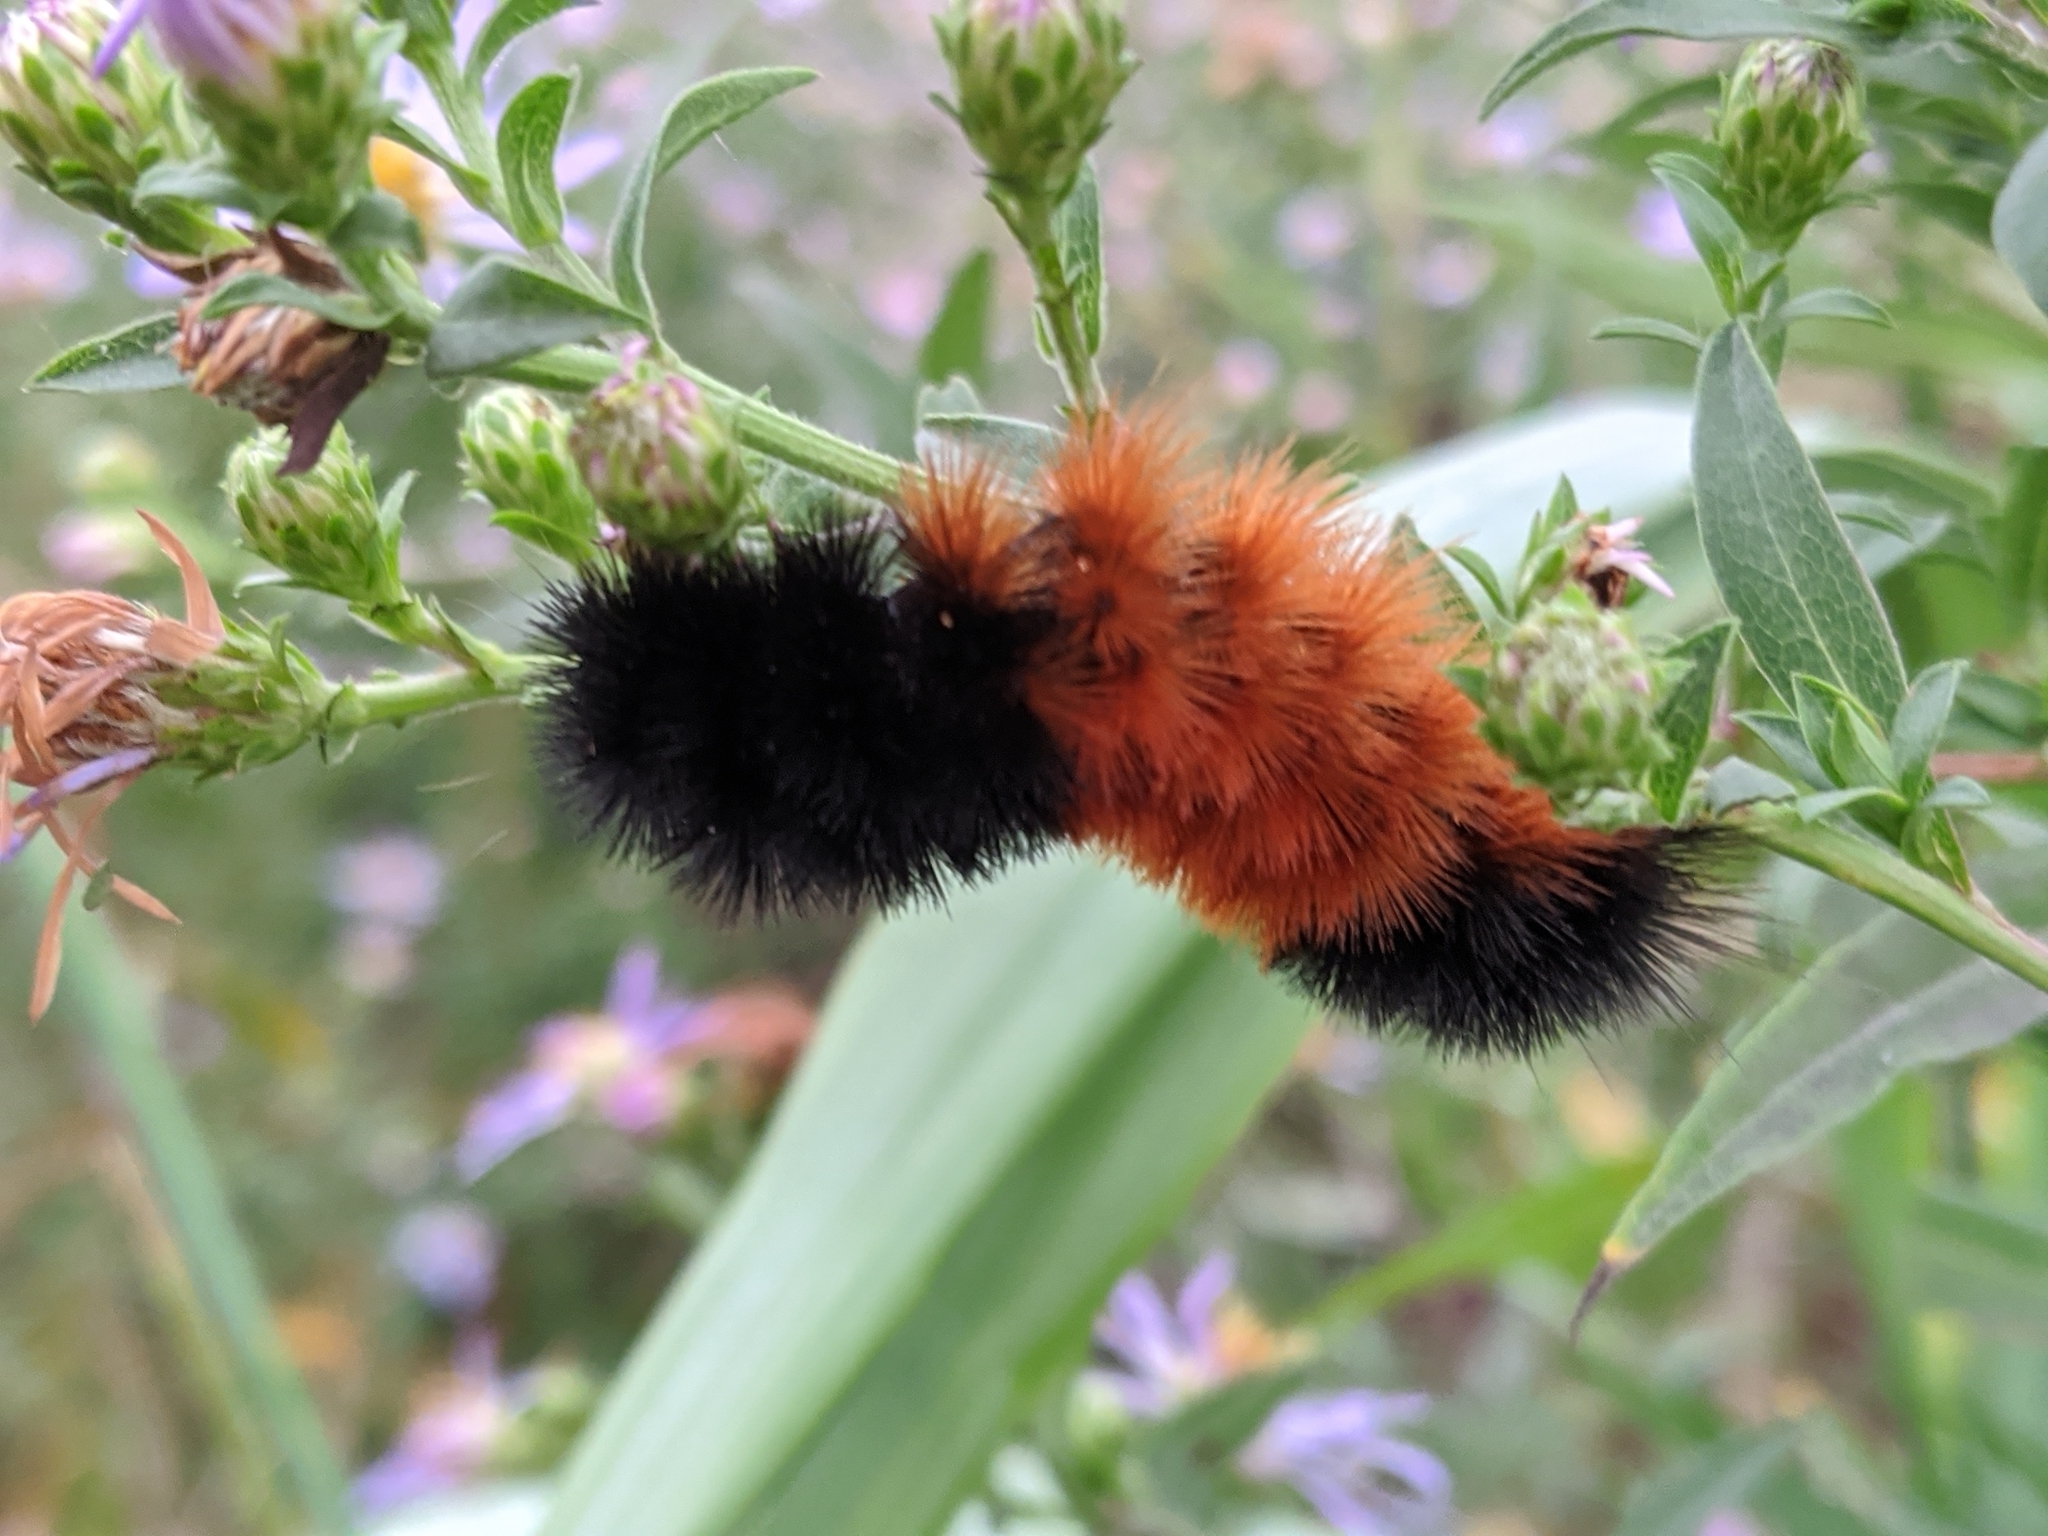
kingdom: Animalia
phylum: Arthropoda
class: Insecta
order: Lepidoptera
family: Erebidae
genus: Pyrrharctia
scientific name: Pyrrharctia isabella
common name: Isabella tiger moth
